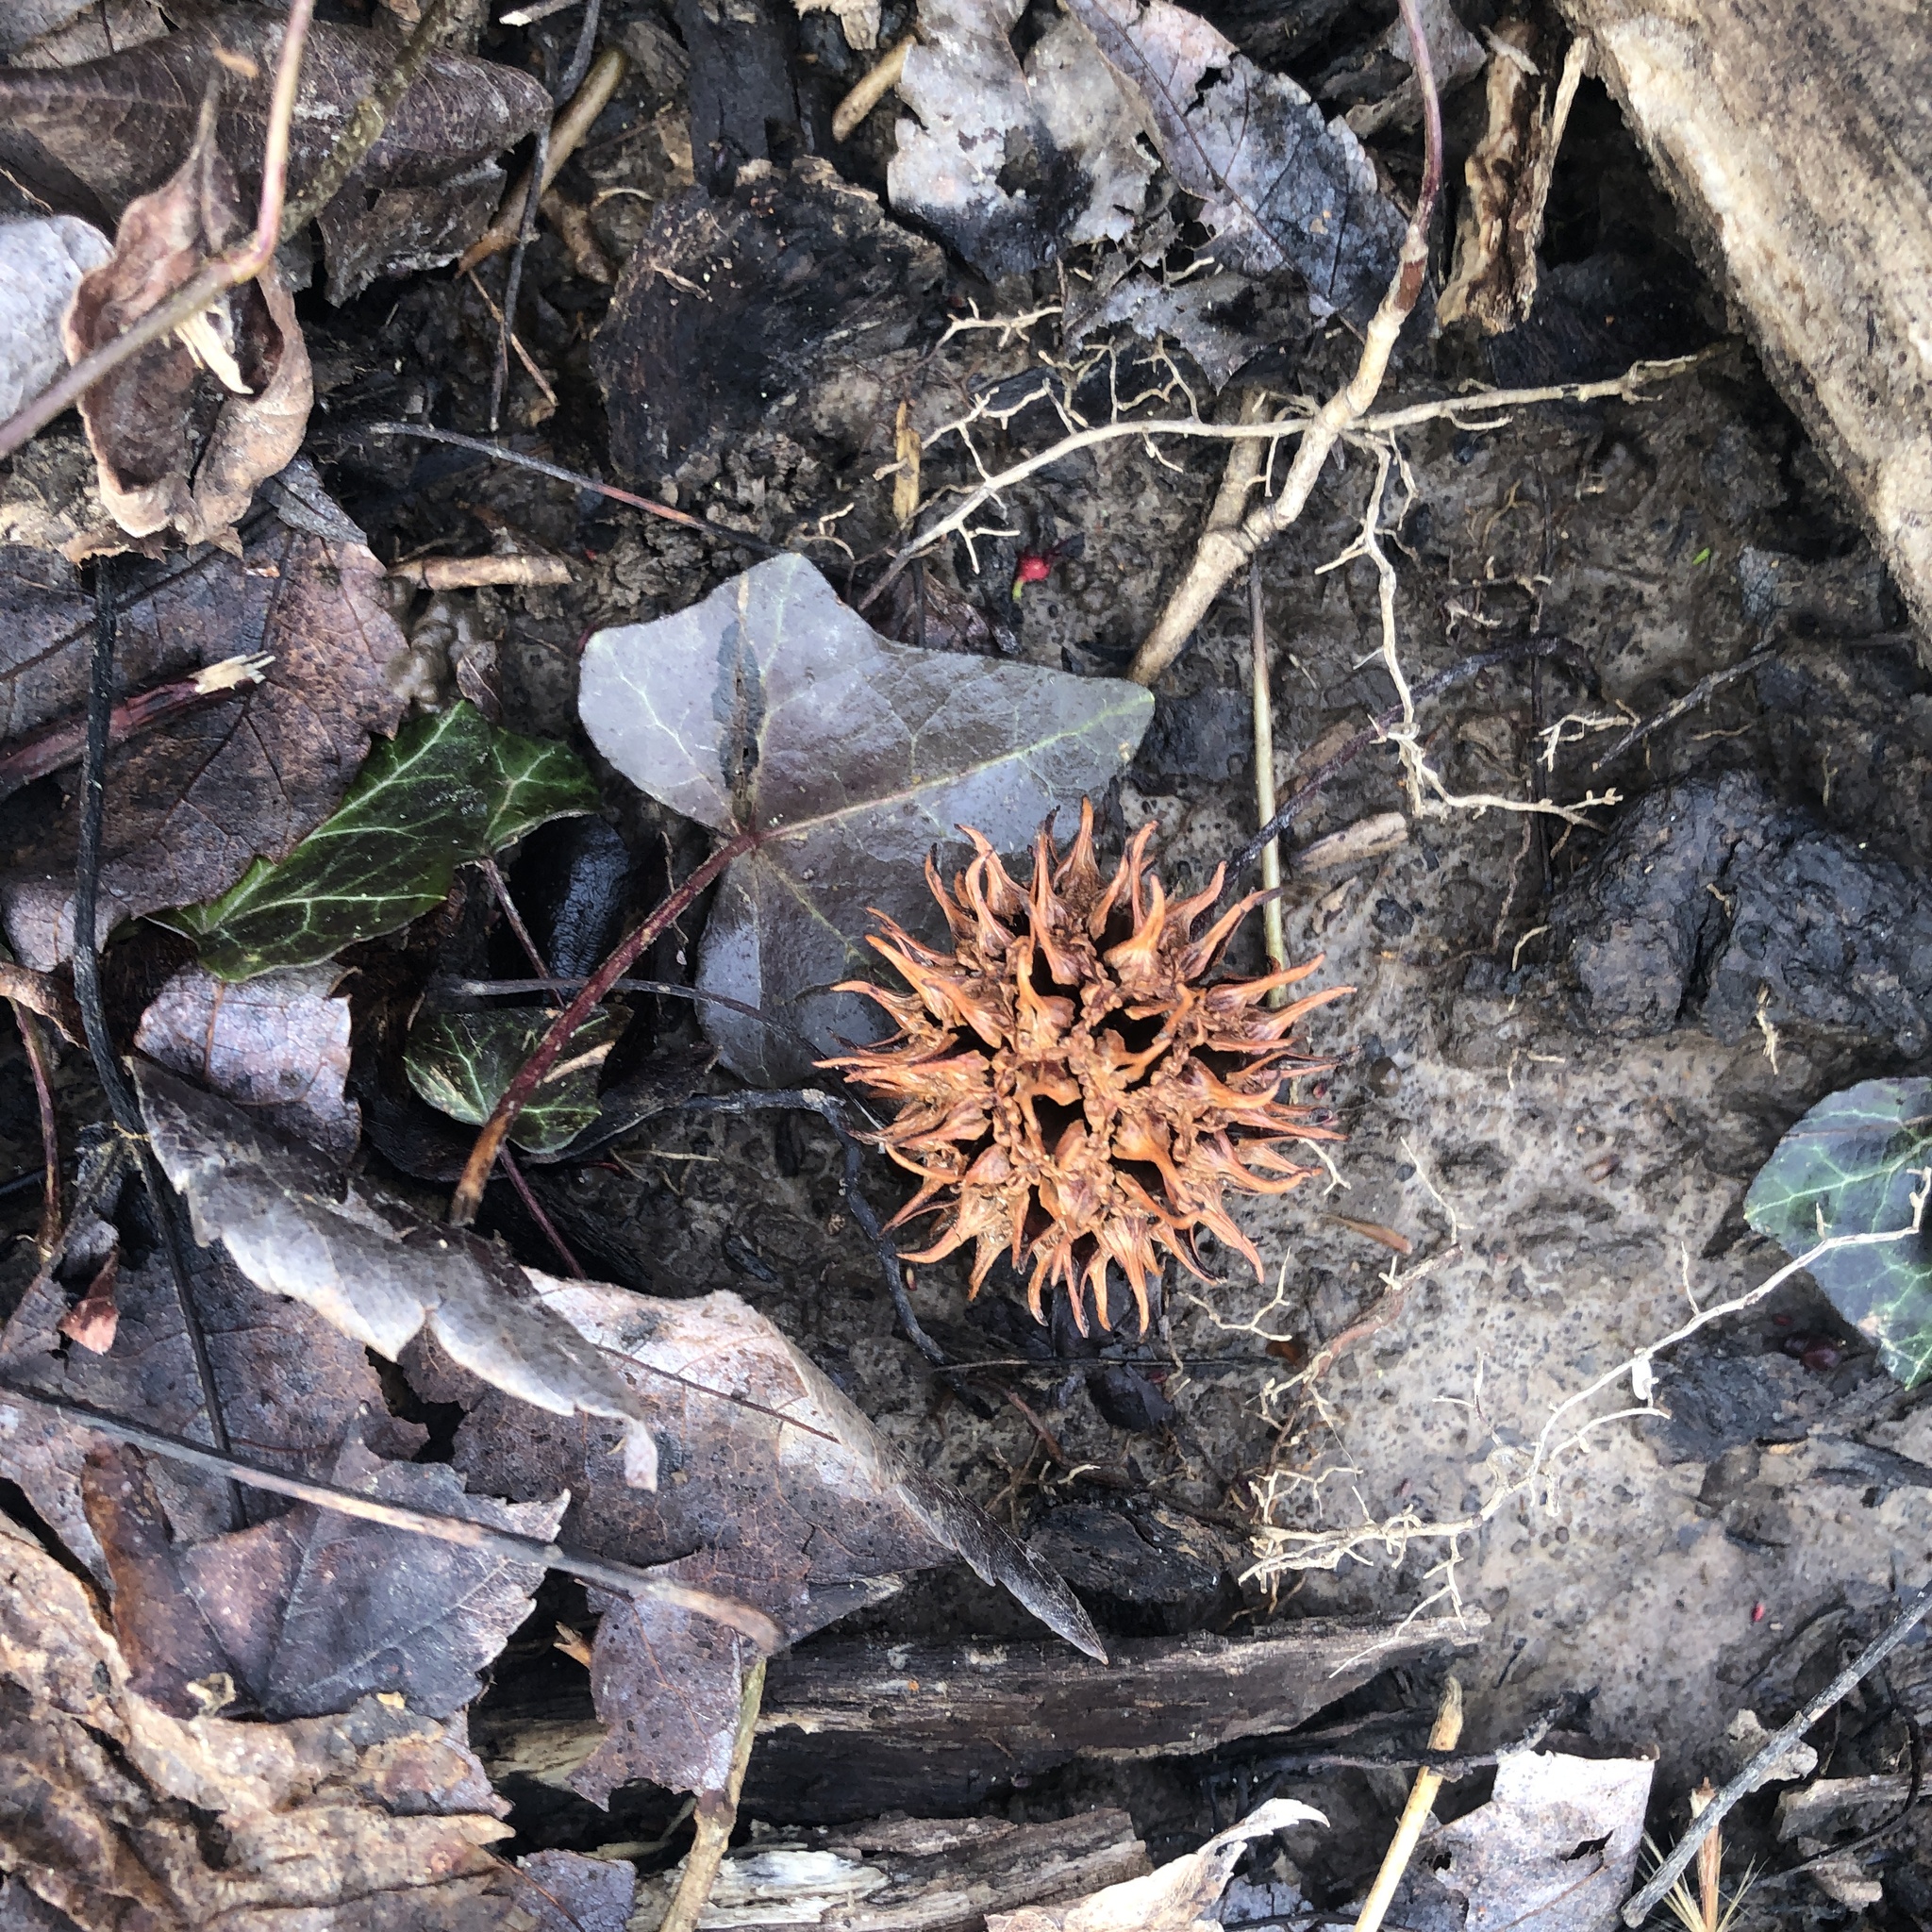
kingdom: Plantae
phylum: Tracheophyta
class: Magnoliopsida
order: Saxifragales
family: Altingiaceae
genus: Liquidambar
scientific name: Liquidambar styraciflua
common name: Sweet gum
